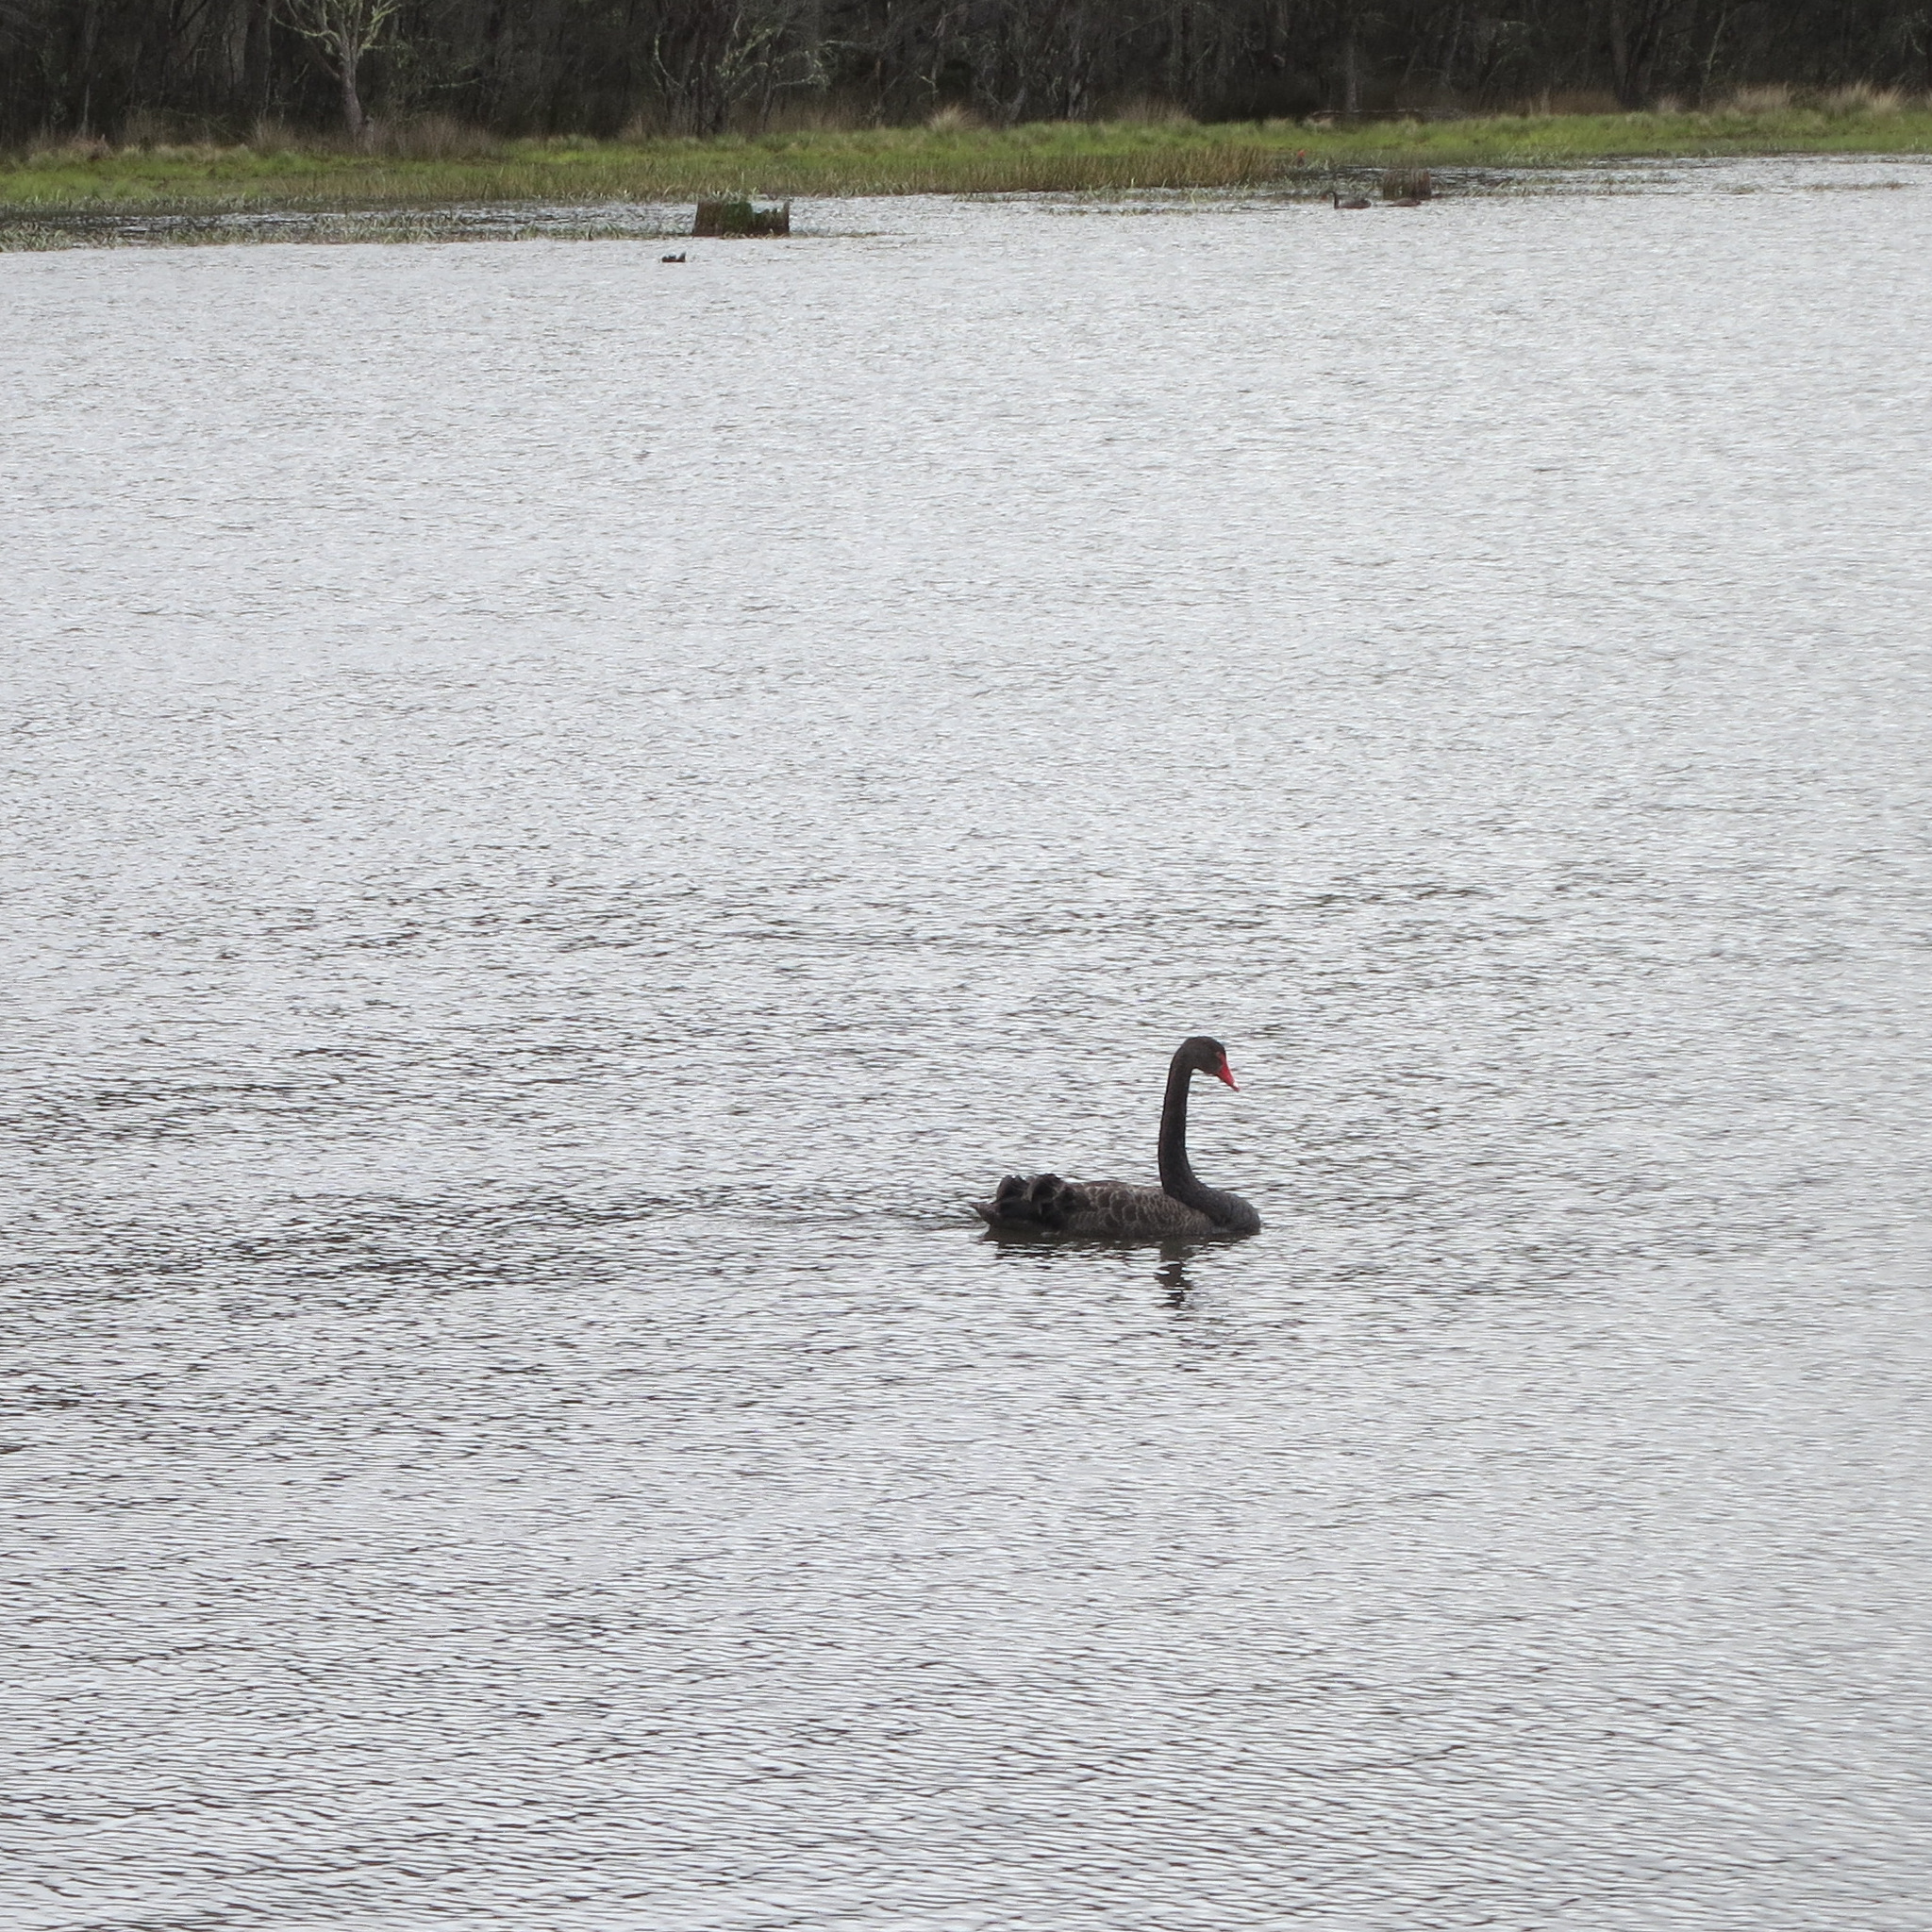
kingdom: Animalia
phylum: Chordata
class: Aves
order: Anseriformes
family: Anatidae
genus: Cygnus
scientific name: Cygnus atratus
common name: Black swan
